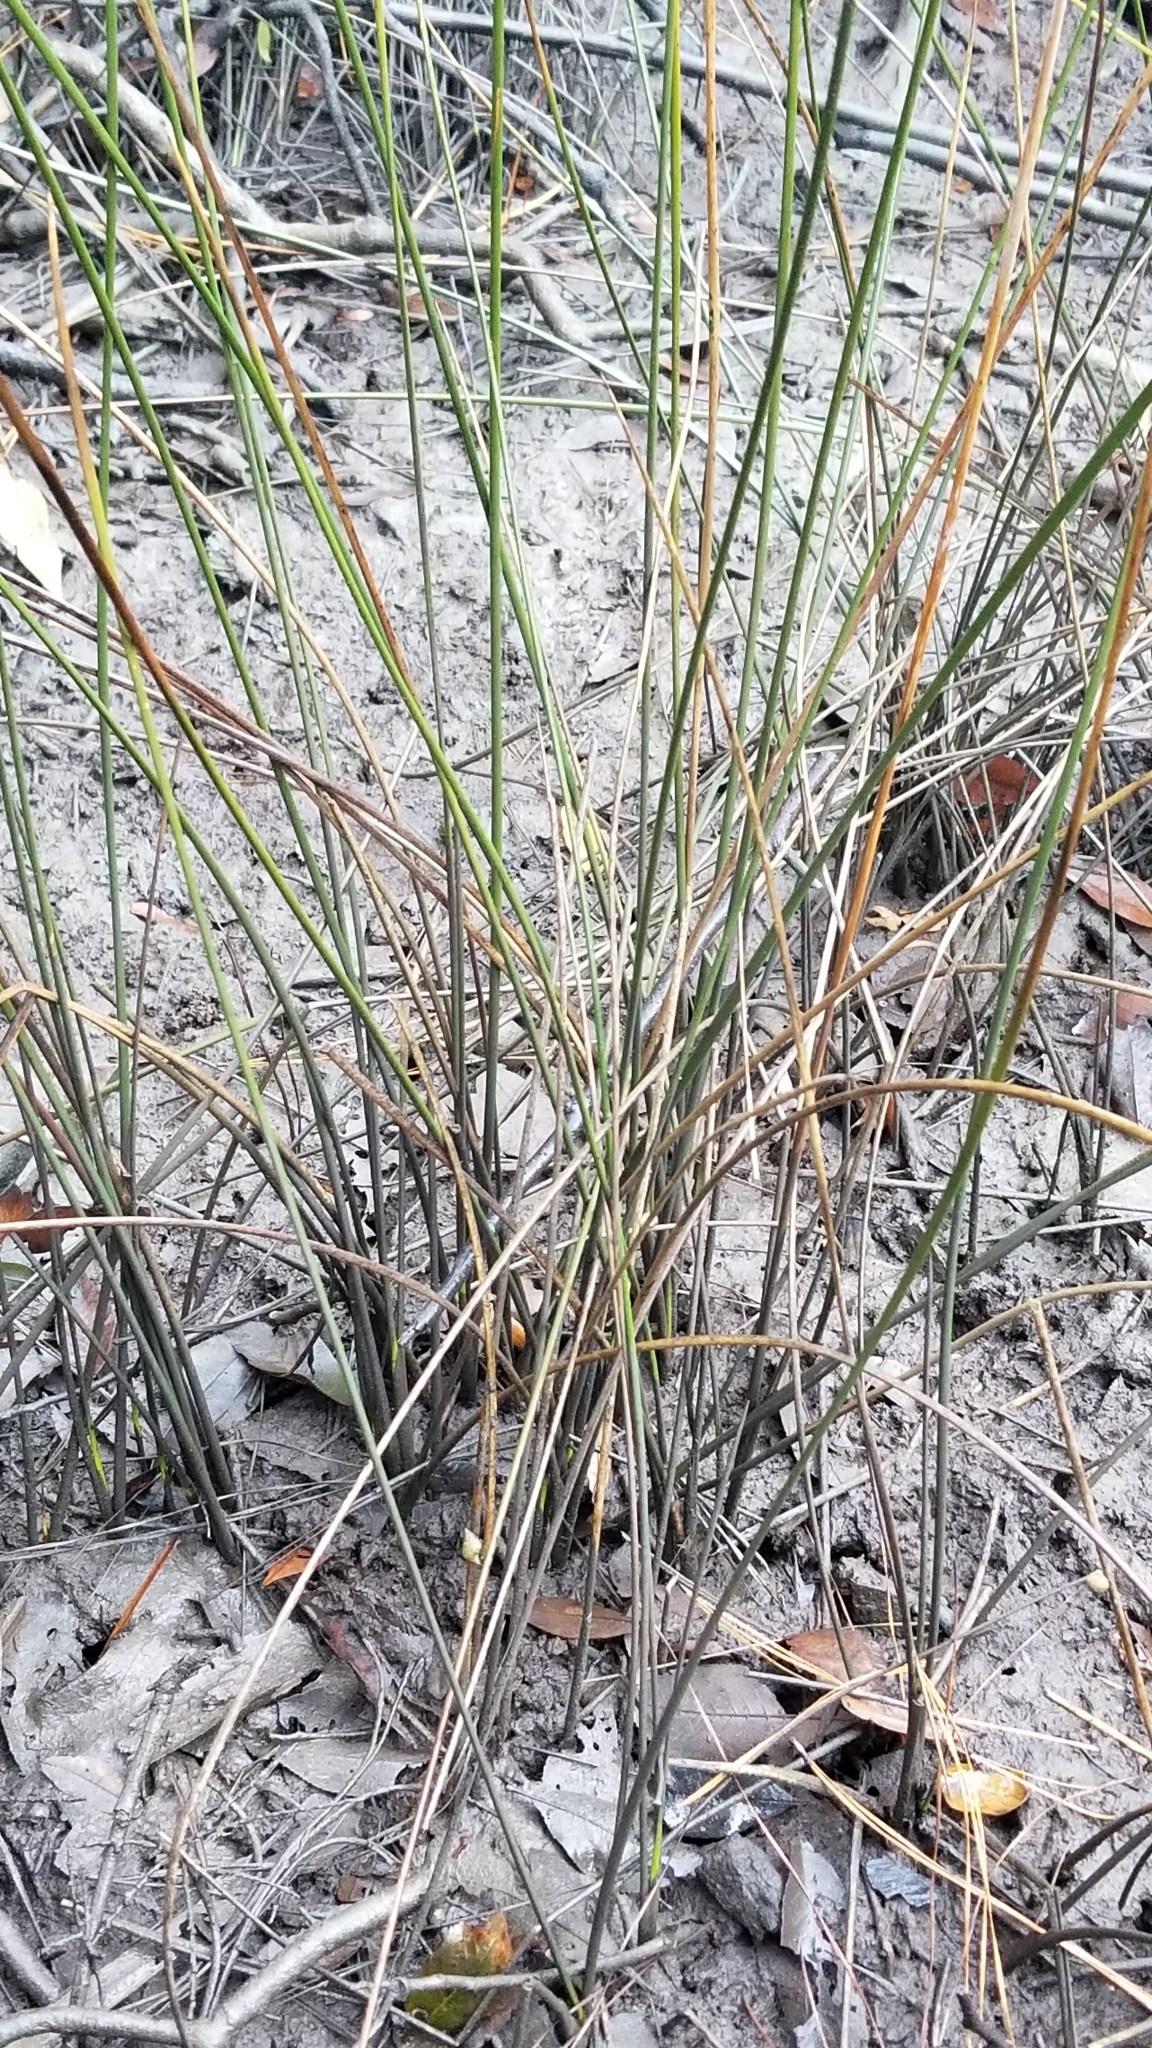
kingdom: Plantae
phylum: Tracheophyta
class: Liliopsida
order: Poales
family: Juncaceae
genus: Juncus
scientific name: Juncus roemerianus
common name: Roemer's rush
